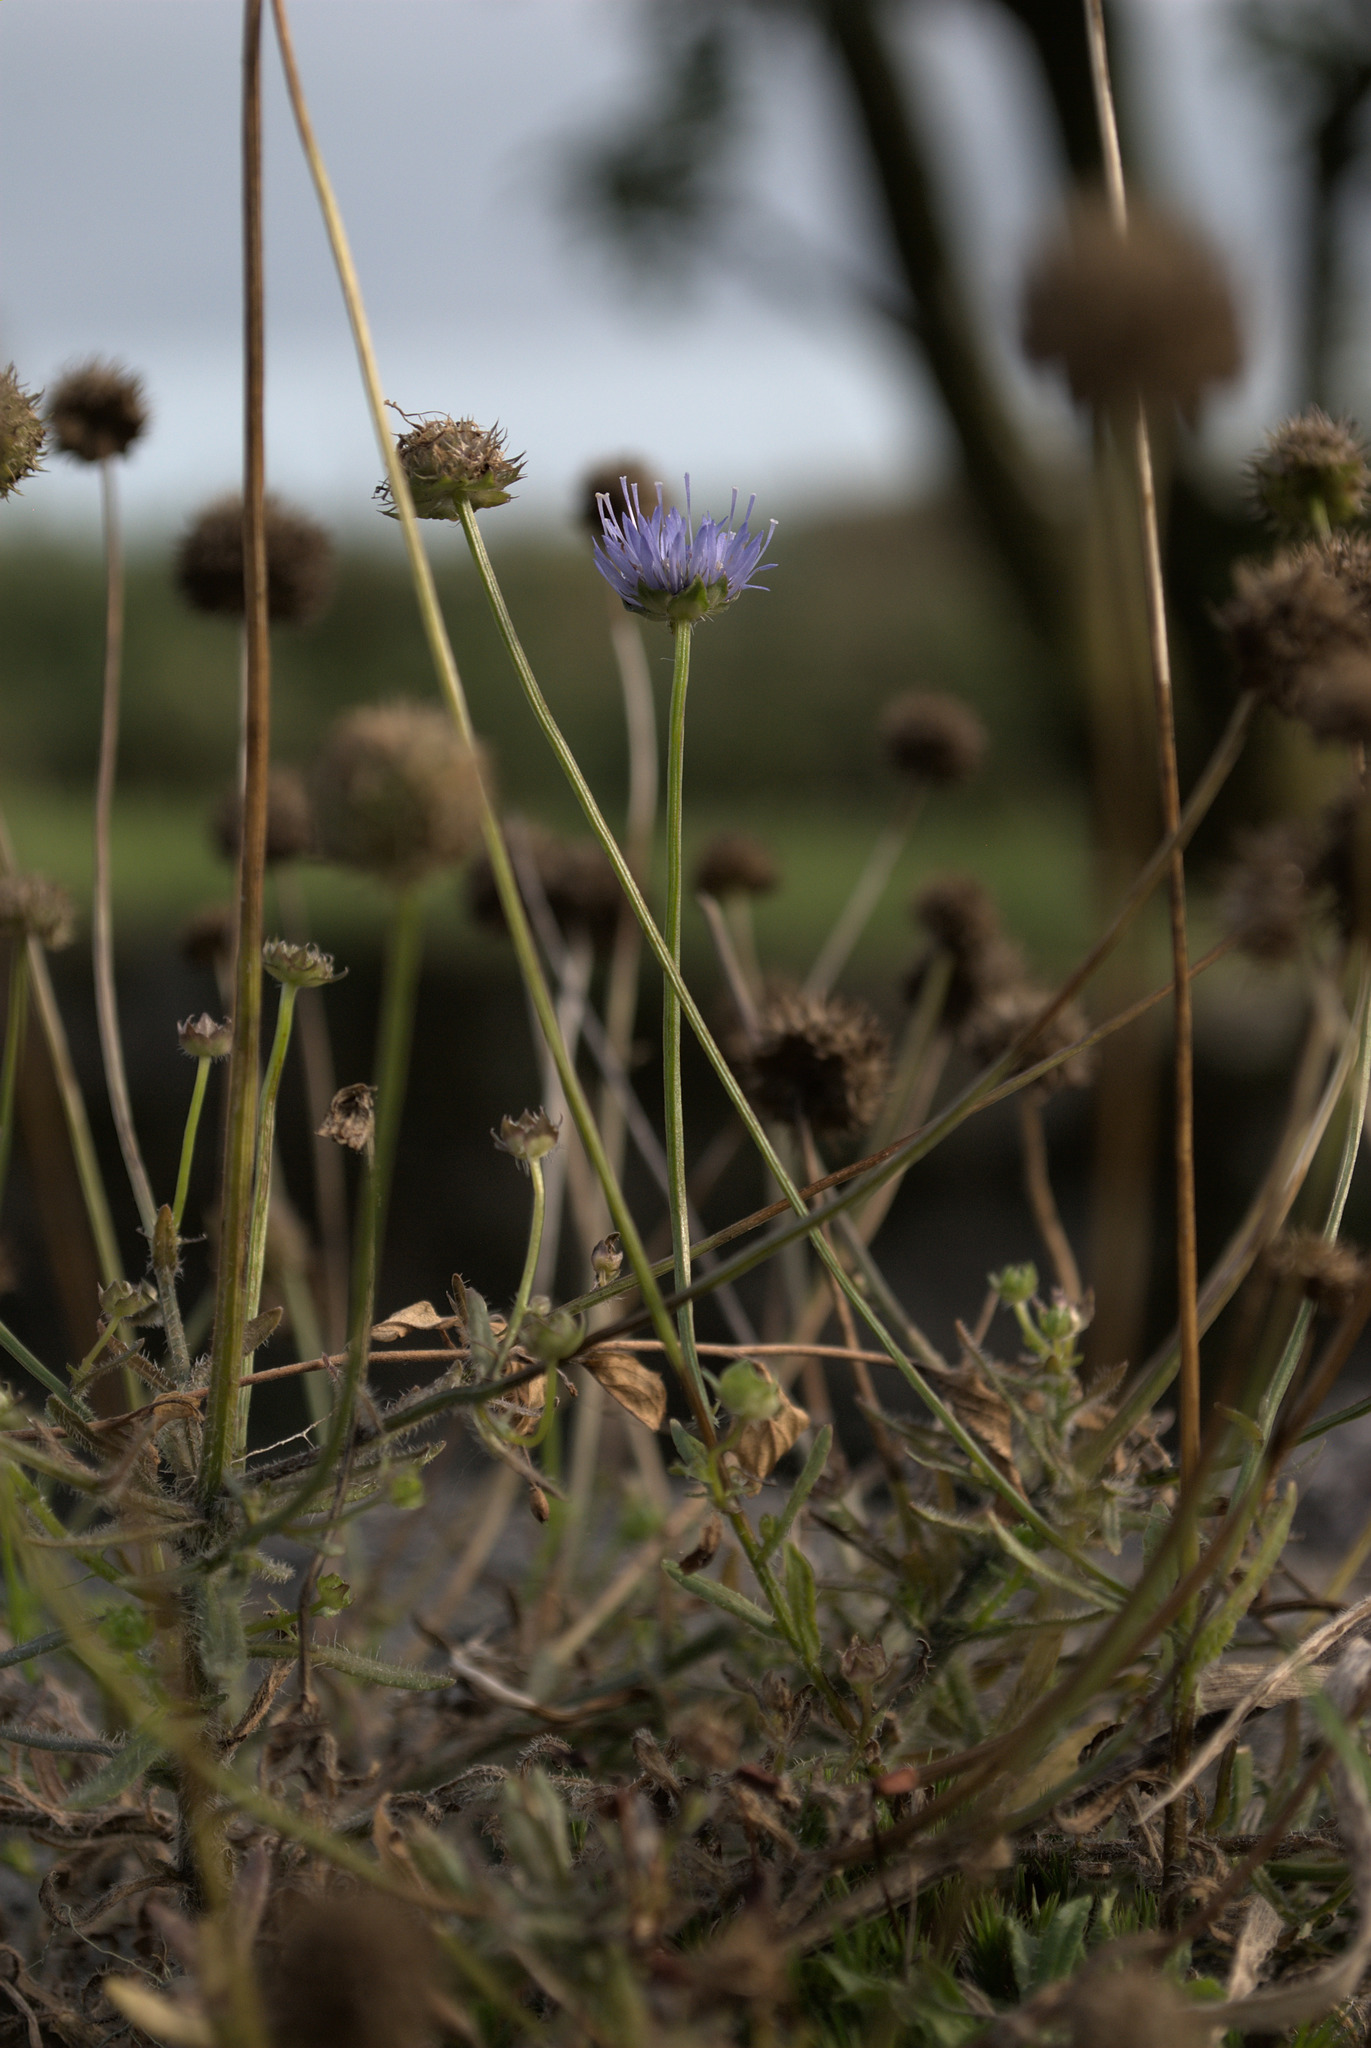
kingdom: Plantae
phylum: Tracheophyta
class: Magnoliopsida
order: Asterales
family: Campanulaceae
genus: Jasione
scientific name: Jasione montana
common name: Sheep's-bit
